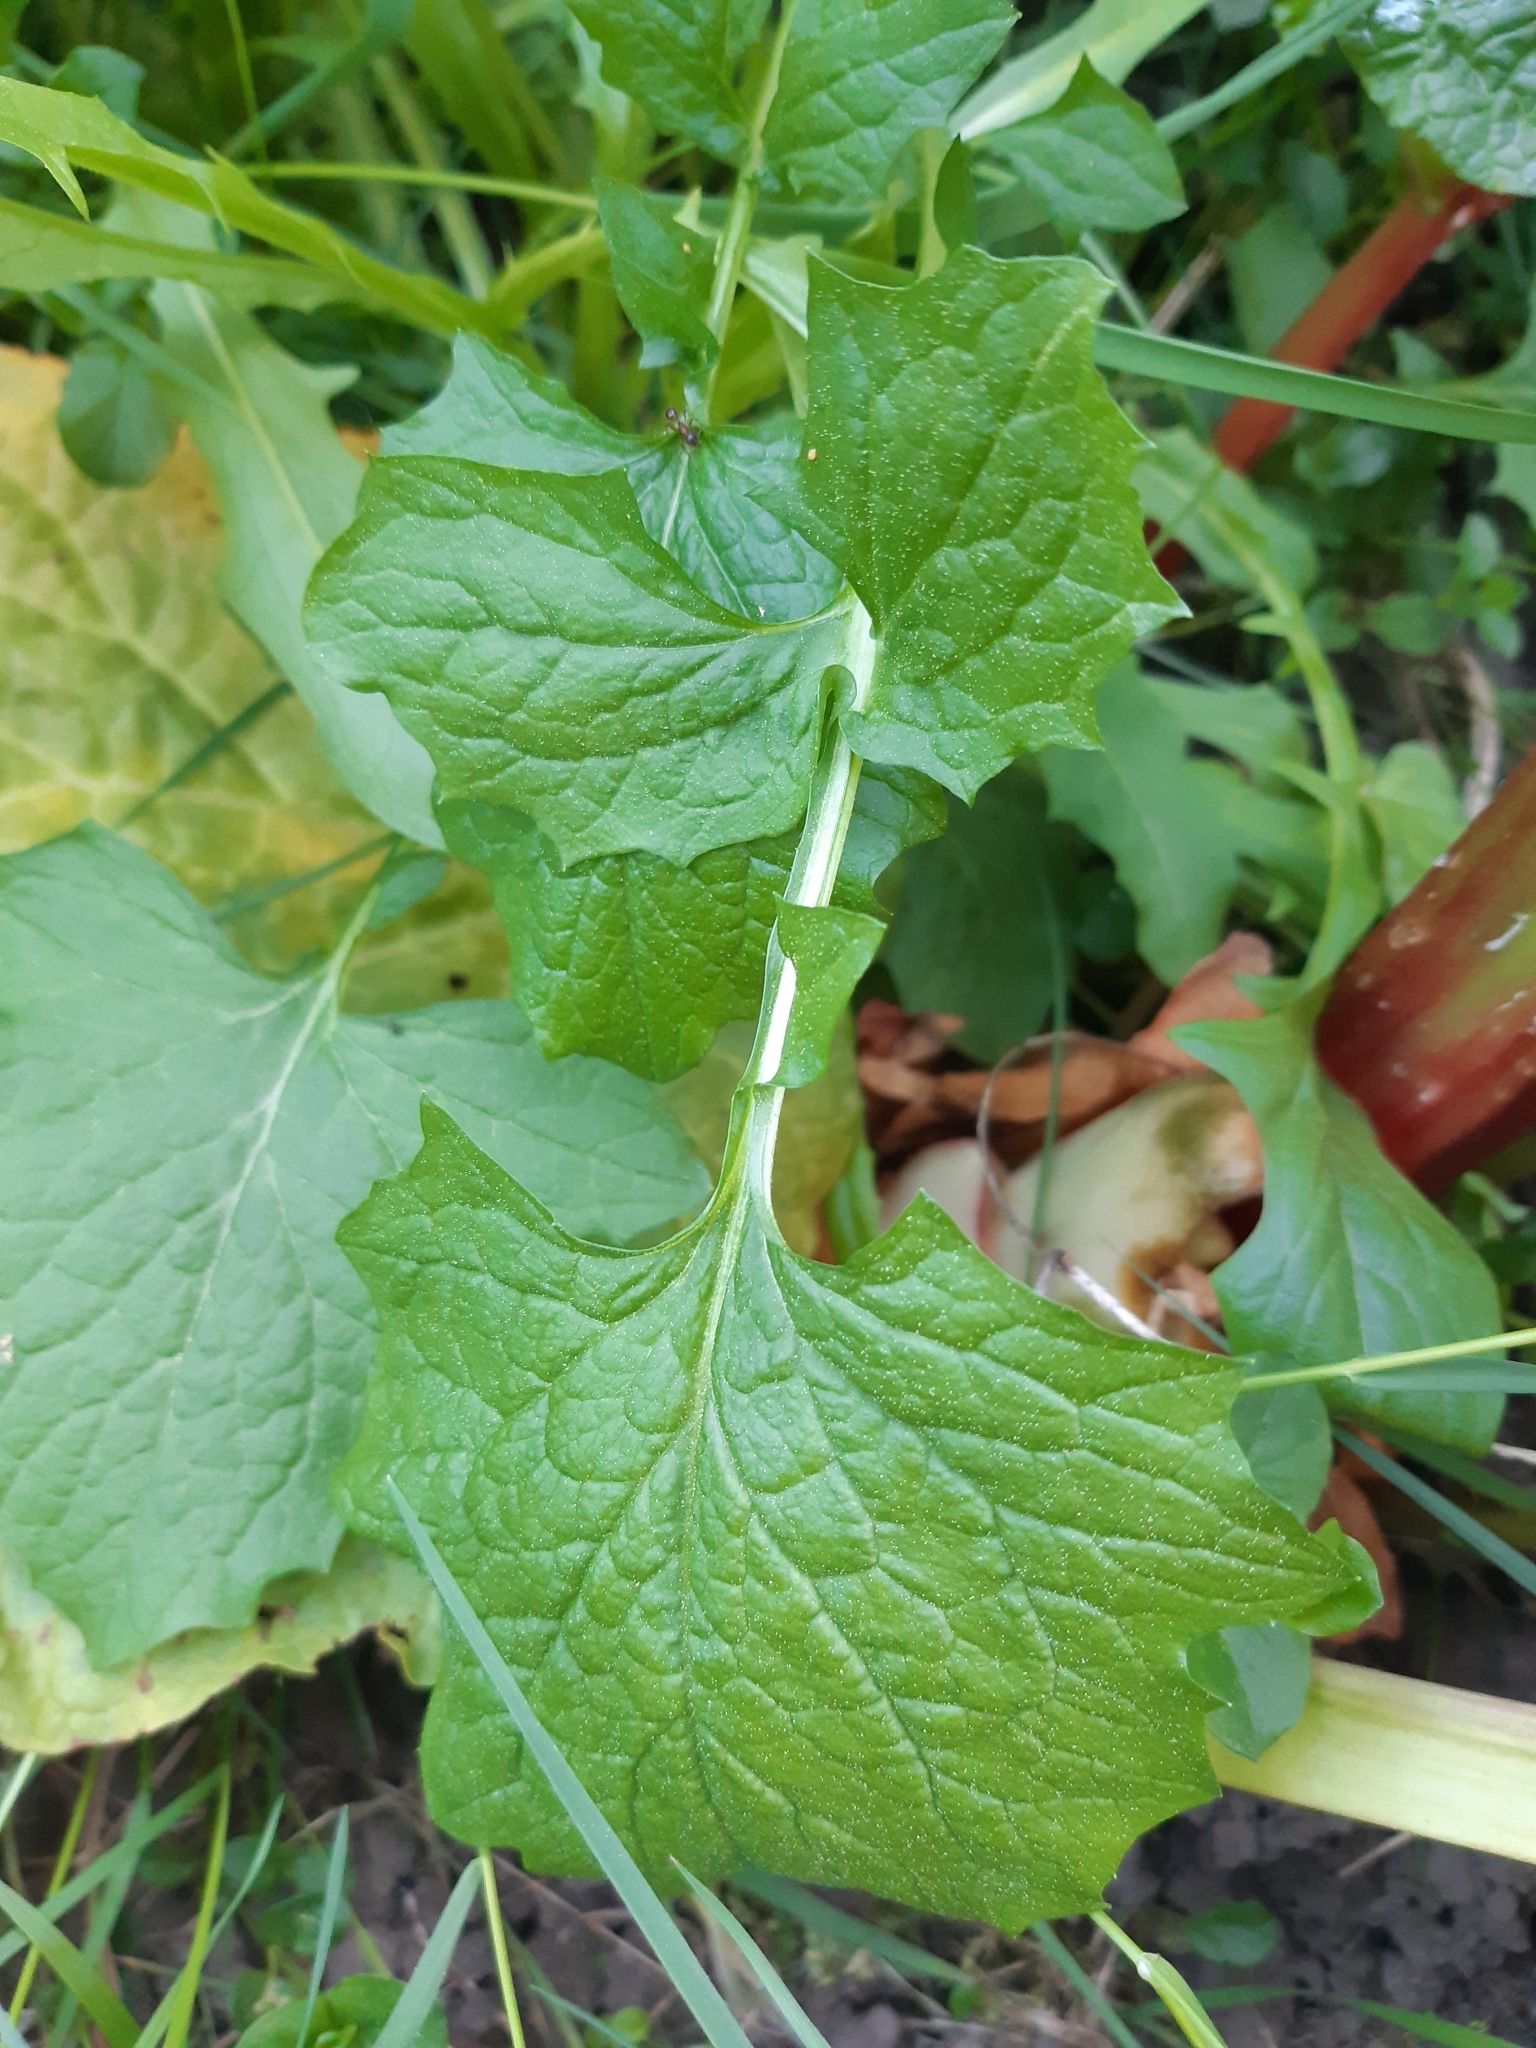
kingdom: Plantae
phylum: Tracheophyta
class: Magnoliopsida
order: Brassicales
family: Brassicaceae
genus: Alliaria
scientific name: Alliaria petiolata
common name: Garlic mustard
